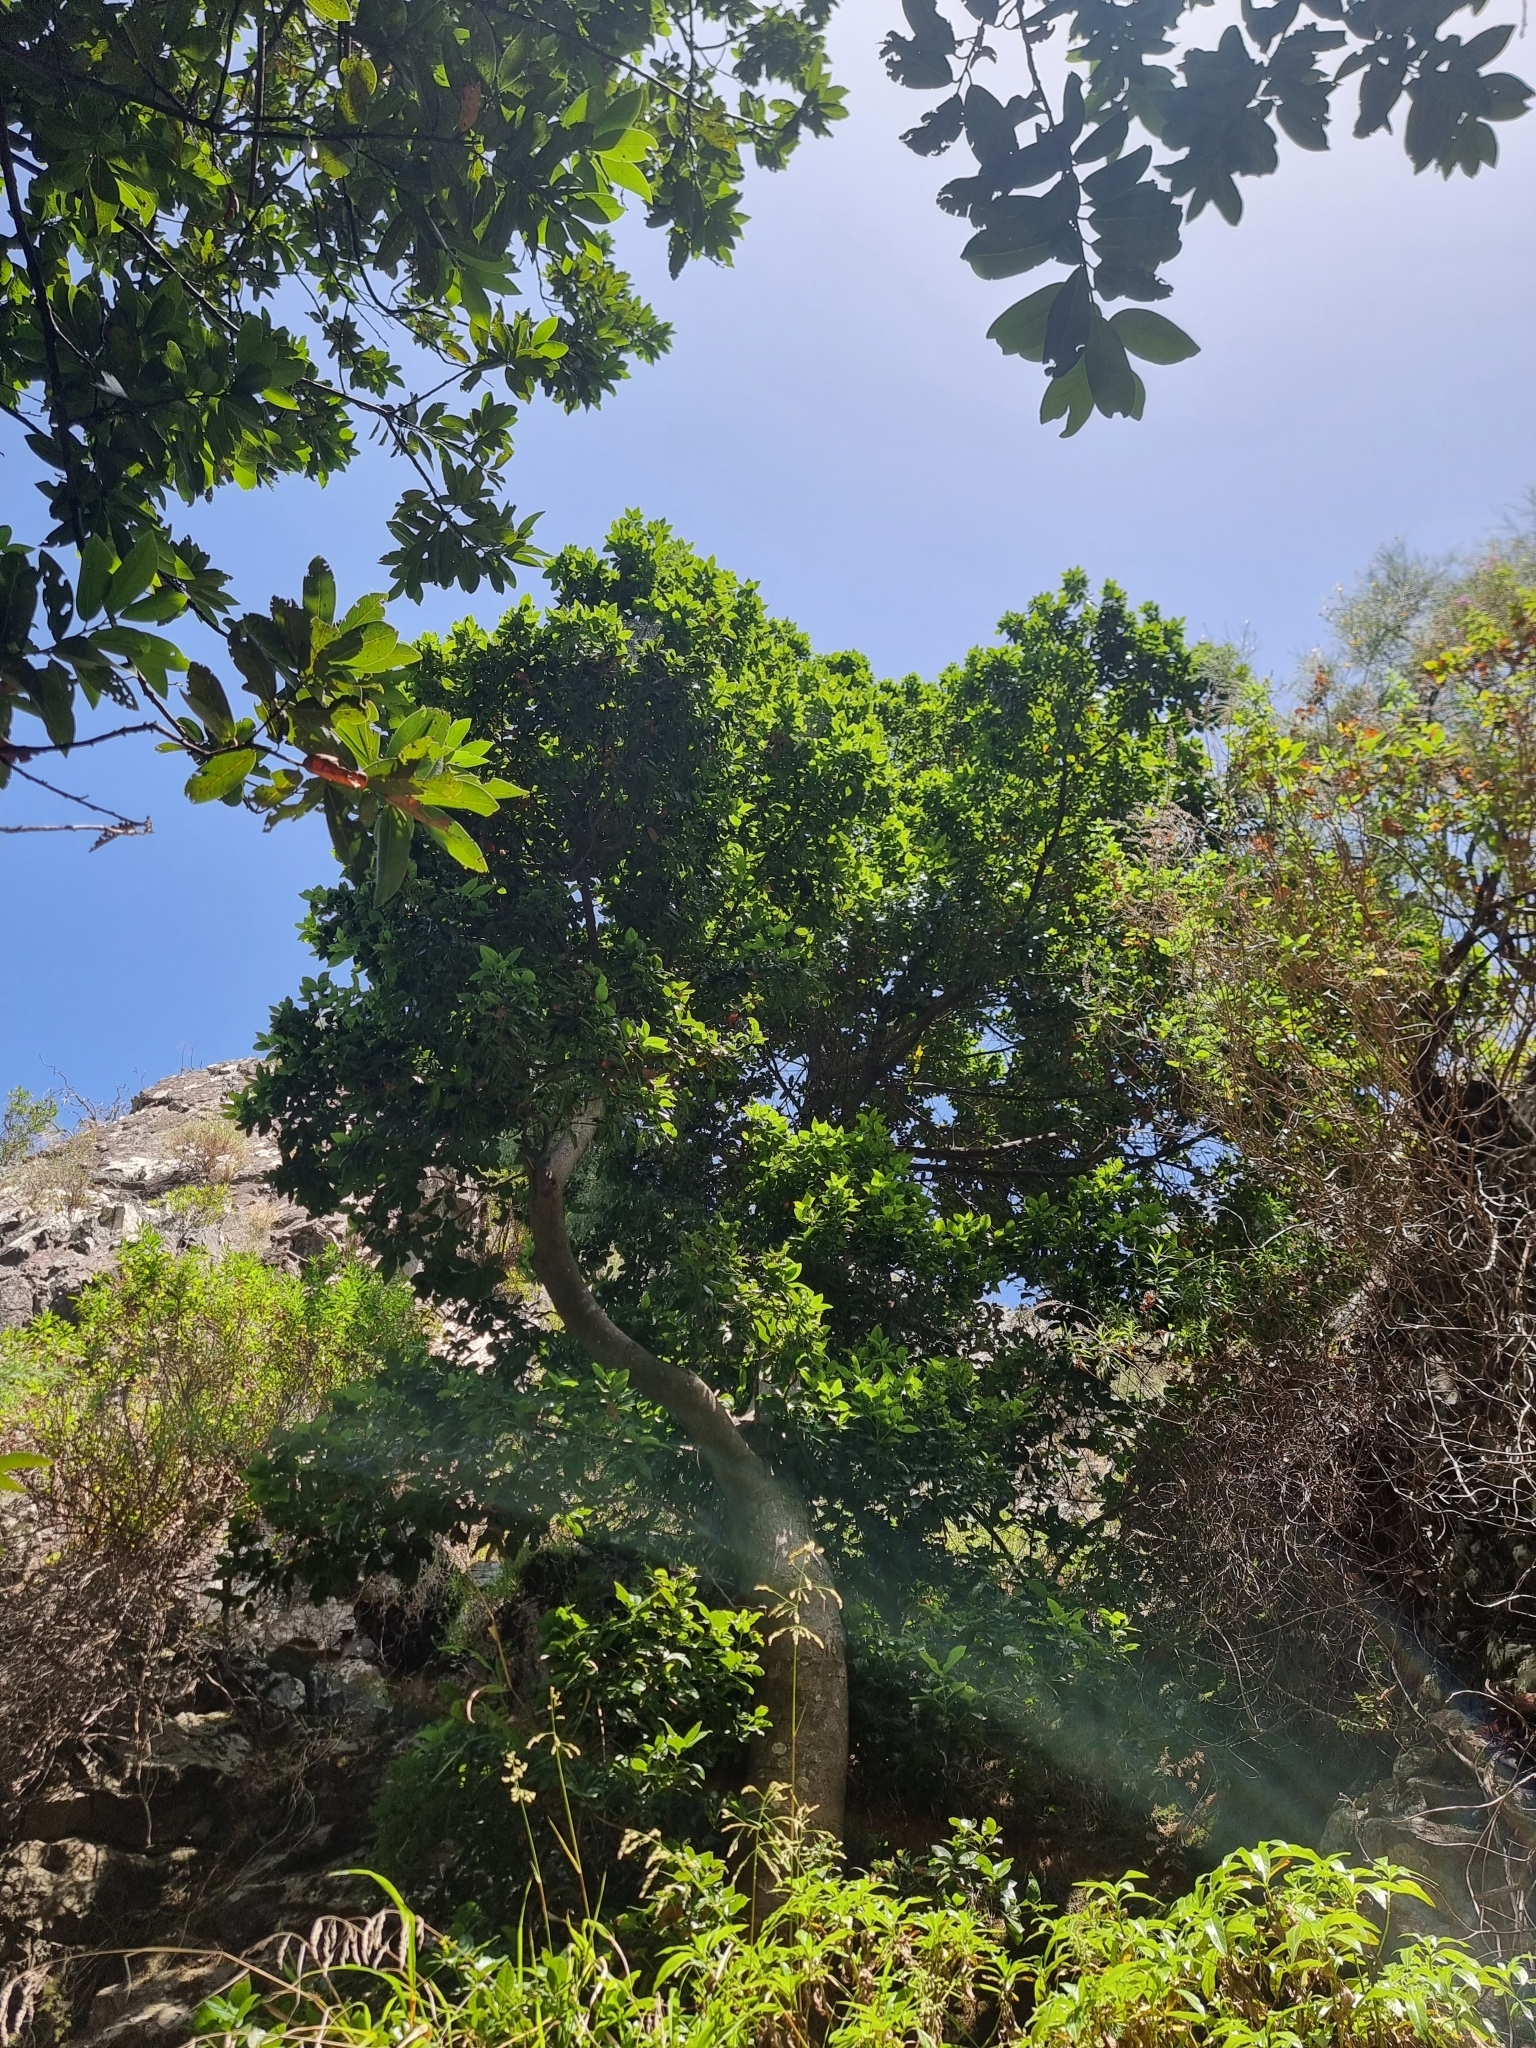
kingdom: Plantae
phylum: Tracheophyta
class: Magnoliopsida
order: Laurales
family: Lauraceae
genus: Apollonias
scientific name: Apollonias barbujana
